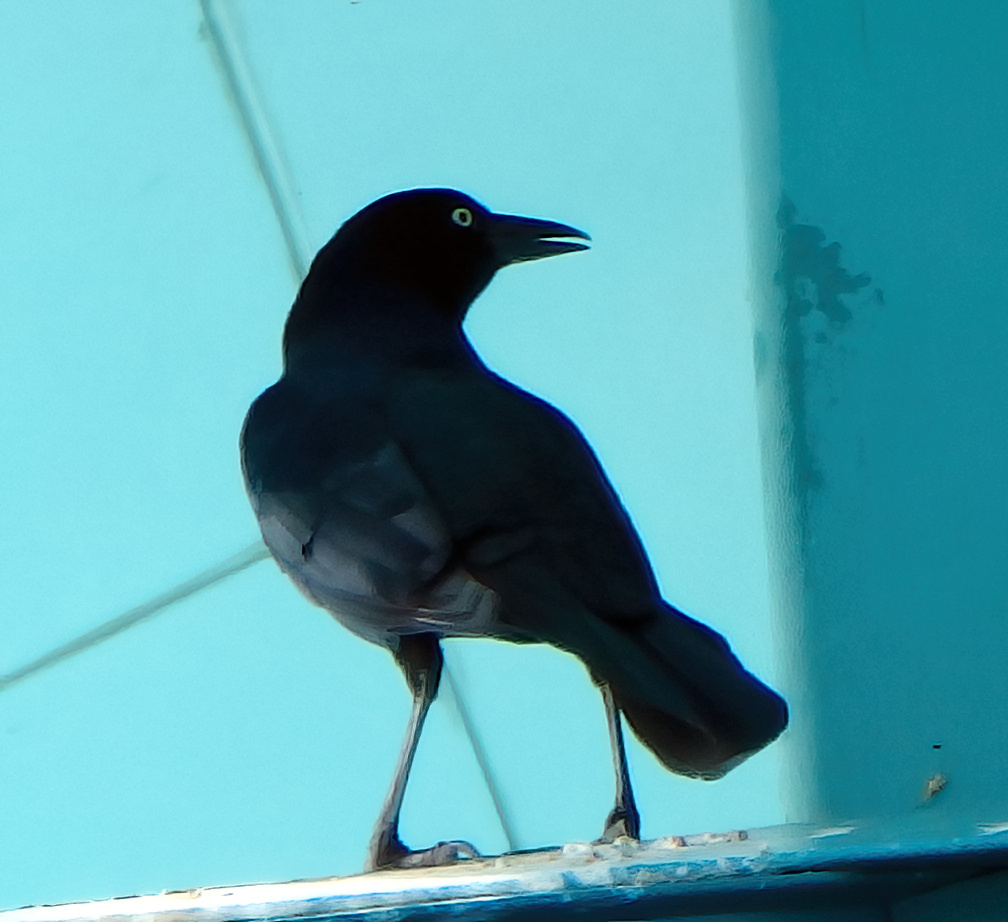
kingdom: Animalia
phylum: Chordata
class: Aves
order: Passeriformes
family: Icteridae
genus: Quiscalus
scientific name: Quiscalus major
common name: Boat-tailed grackle
